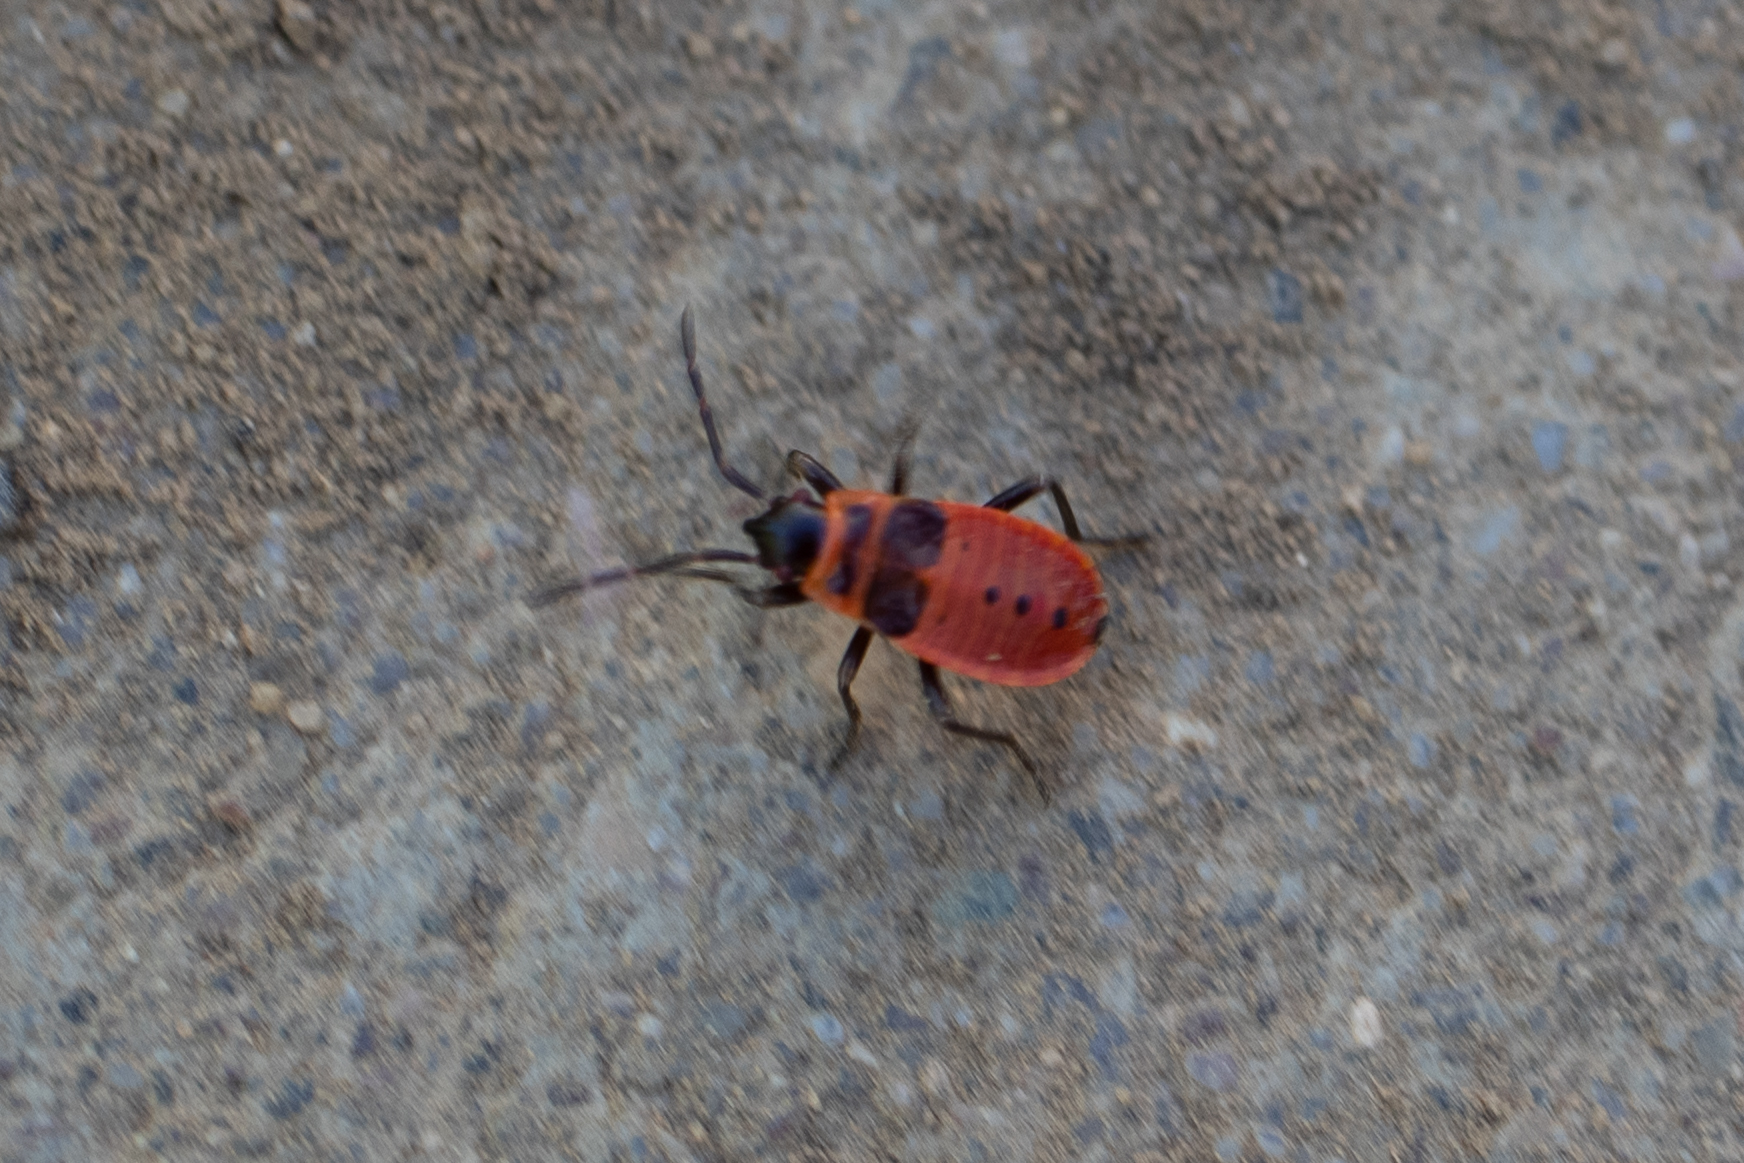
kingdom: Animalia
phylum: Arthropoda
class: Insecta
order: Hemiptera
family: Pyrrhocoridae
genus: Pyrrhocoris
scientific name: Pyrrhocoris apterus
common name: Firebug
